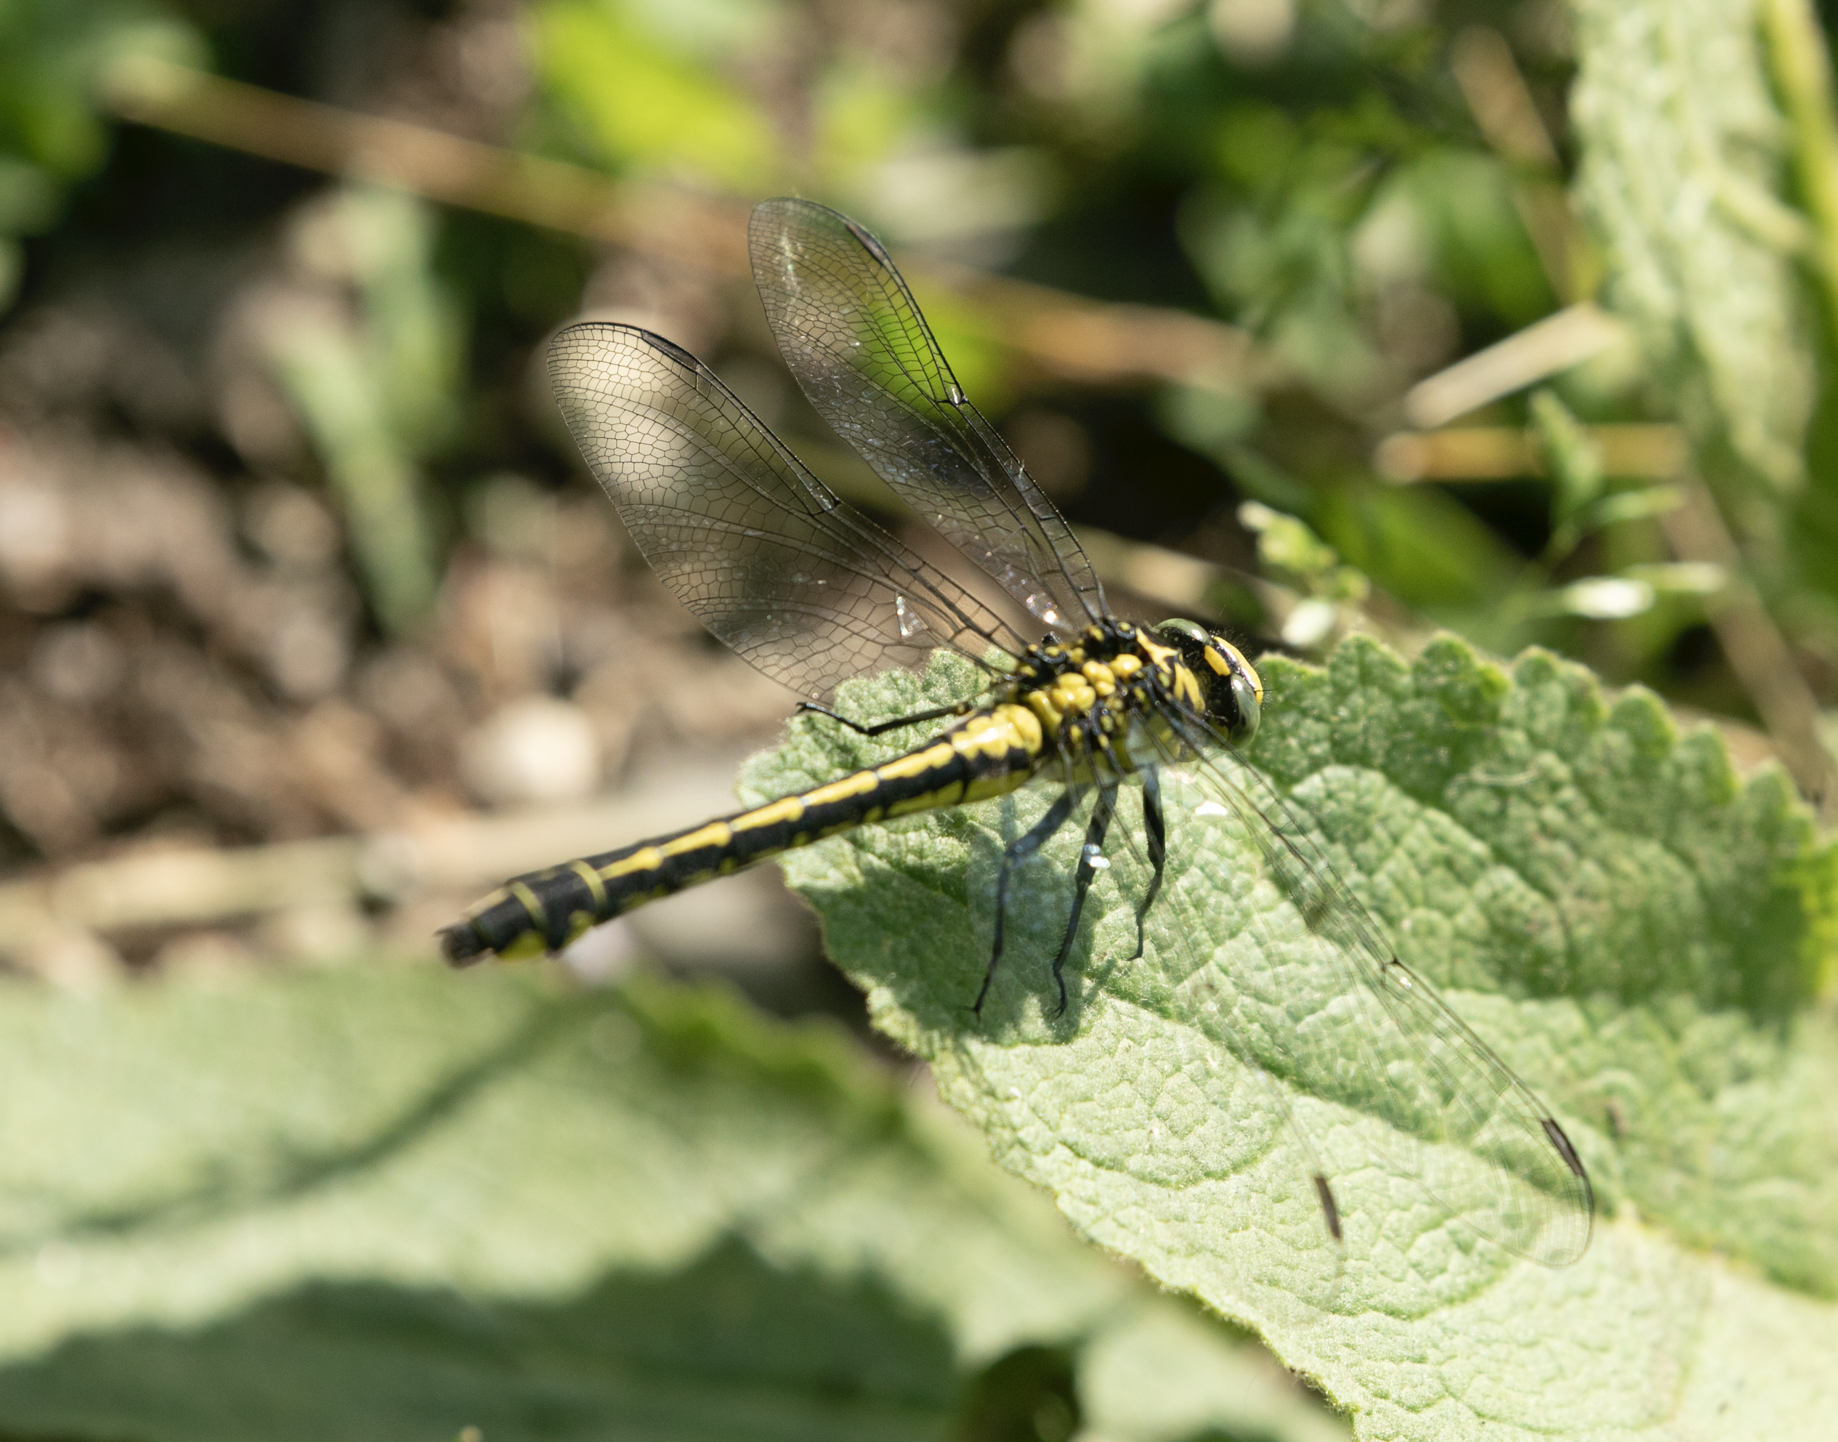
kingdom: Animalia
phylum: Arthropoda
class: Insecta
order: Odonata
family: Gomphidae
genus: Gomphus
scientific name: Gomphus vulgatissimus
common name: Club-tailed dragonfly
